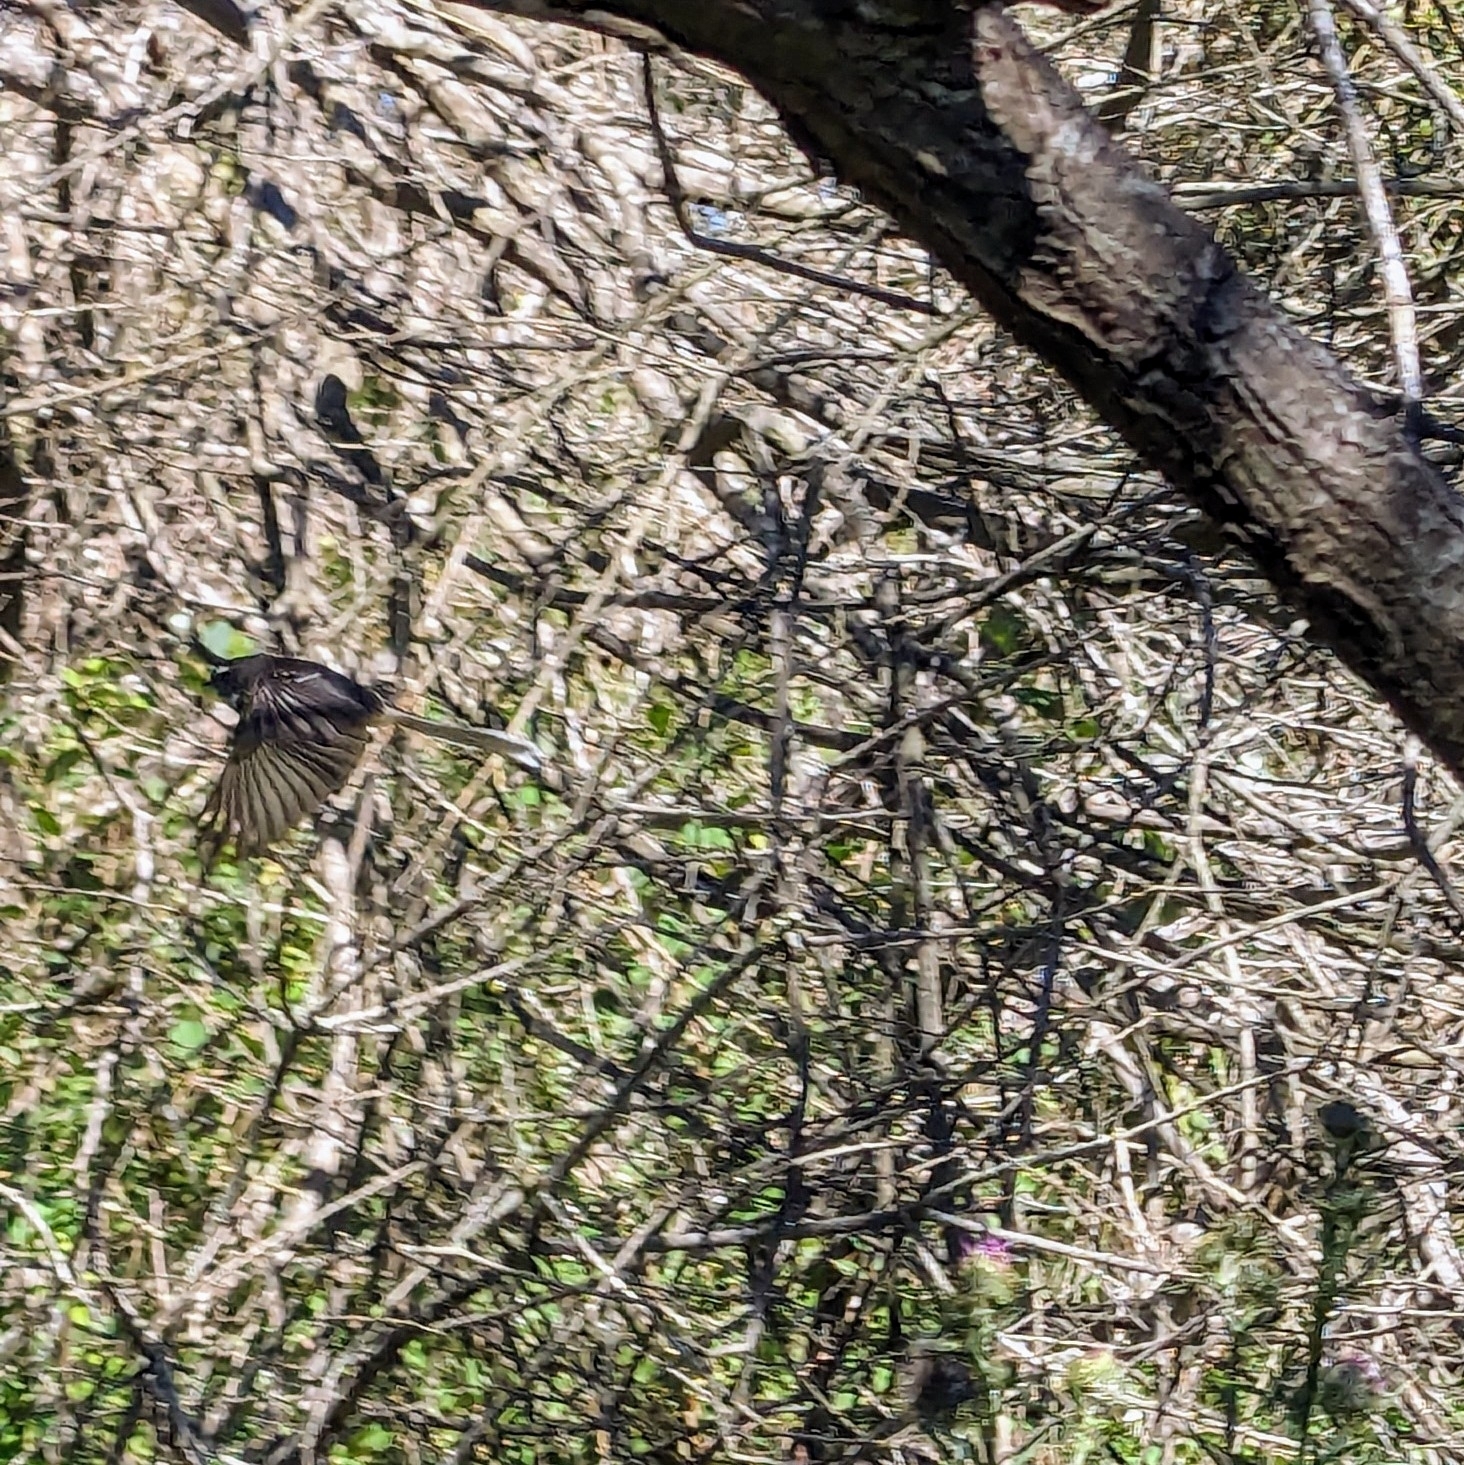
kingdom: Animalia
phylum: Chordata
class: Aves
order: Passeriformes
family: Rhipiduridae
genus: Rhipidura
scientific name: Rhipidura fuliginosa
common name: New zealand fantail
